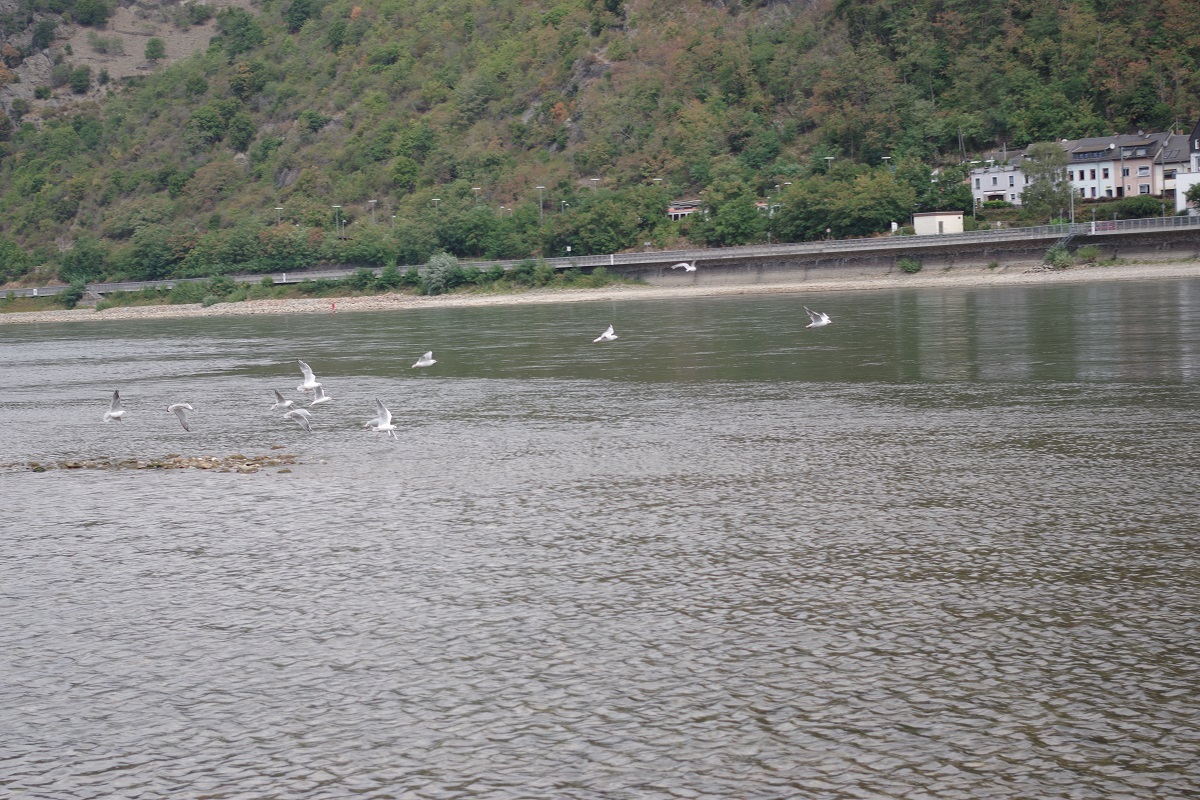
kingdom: Animalia
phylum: Chordata
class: Aves
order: Charadriiformes
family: Laridae
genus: Chroicocephalus
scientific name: Chroicocephalus ridibundus
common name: Black-headed gull
